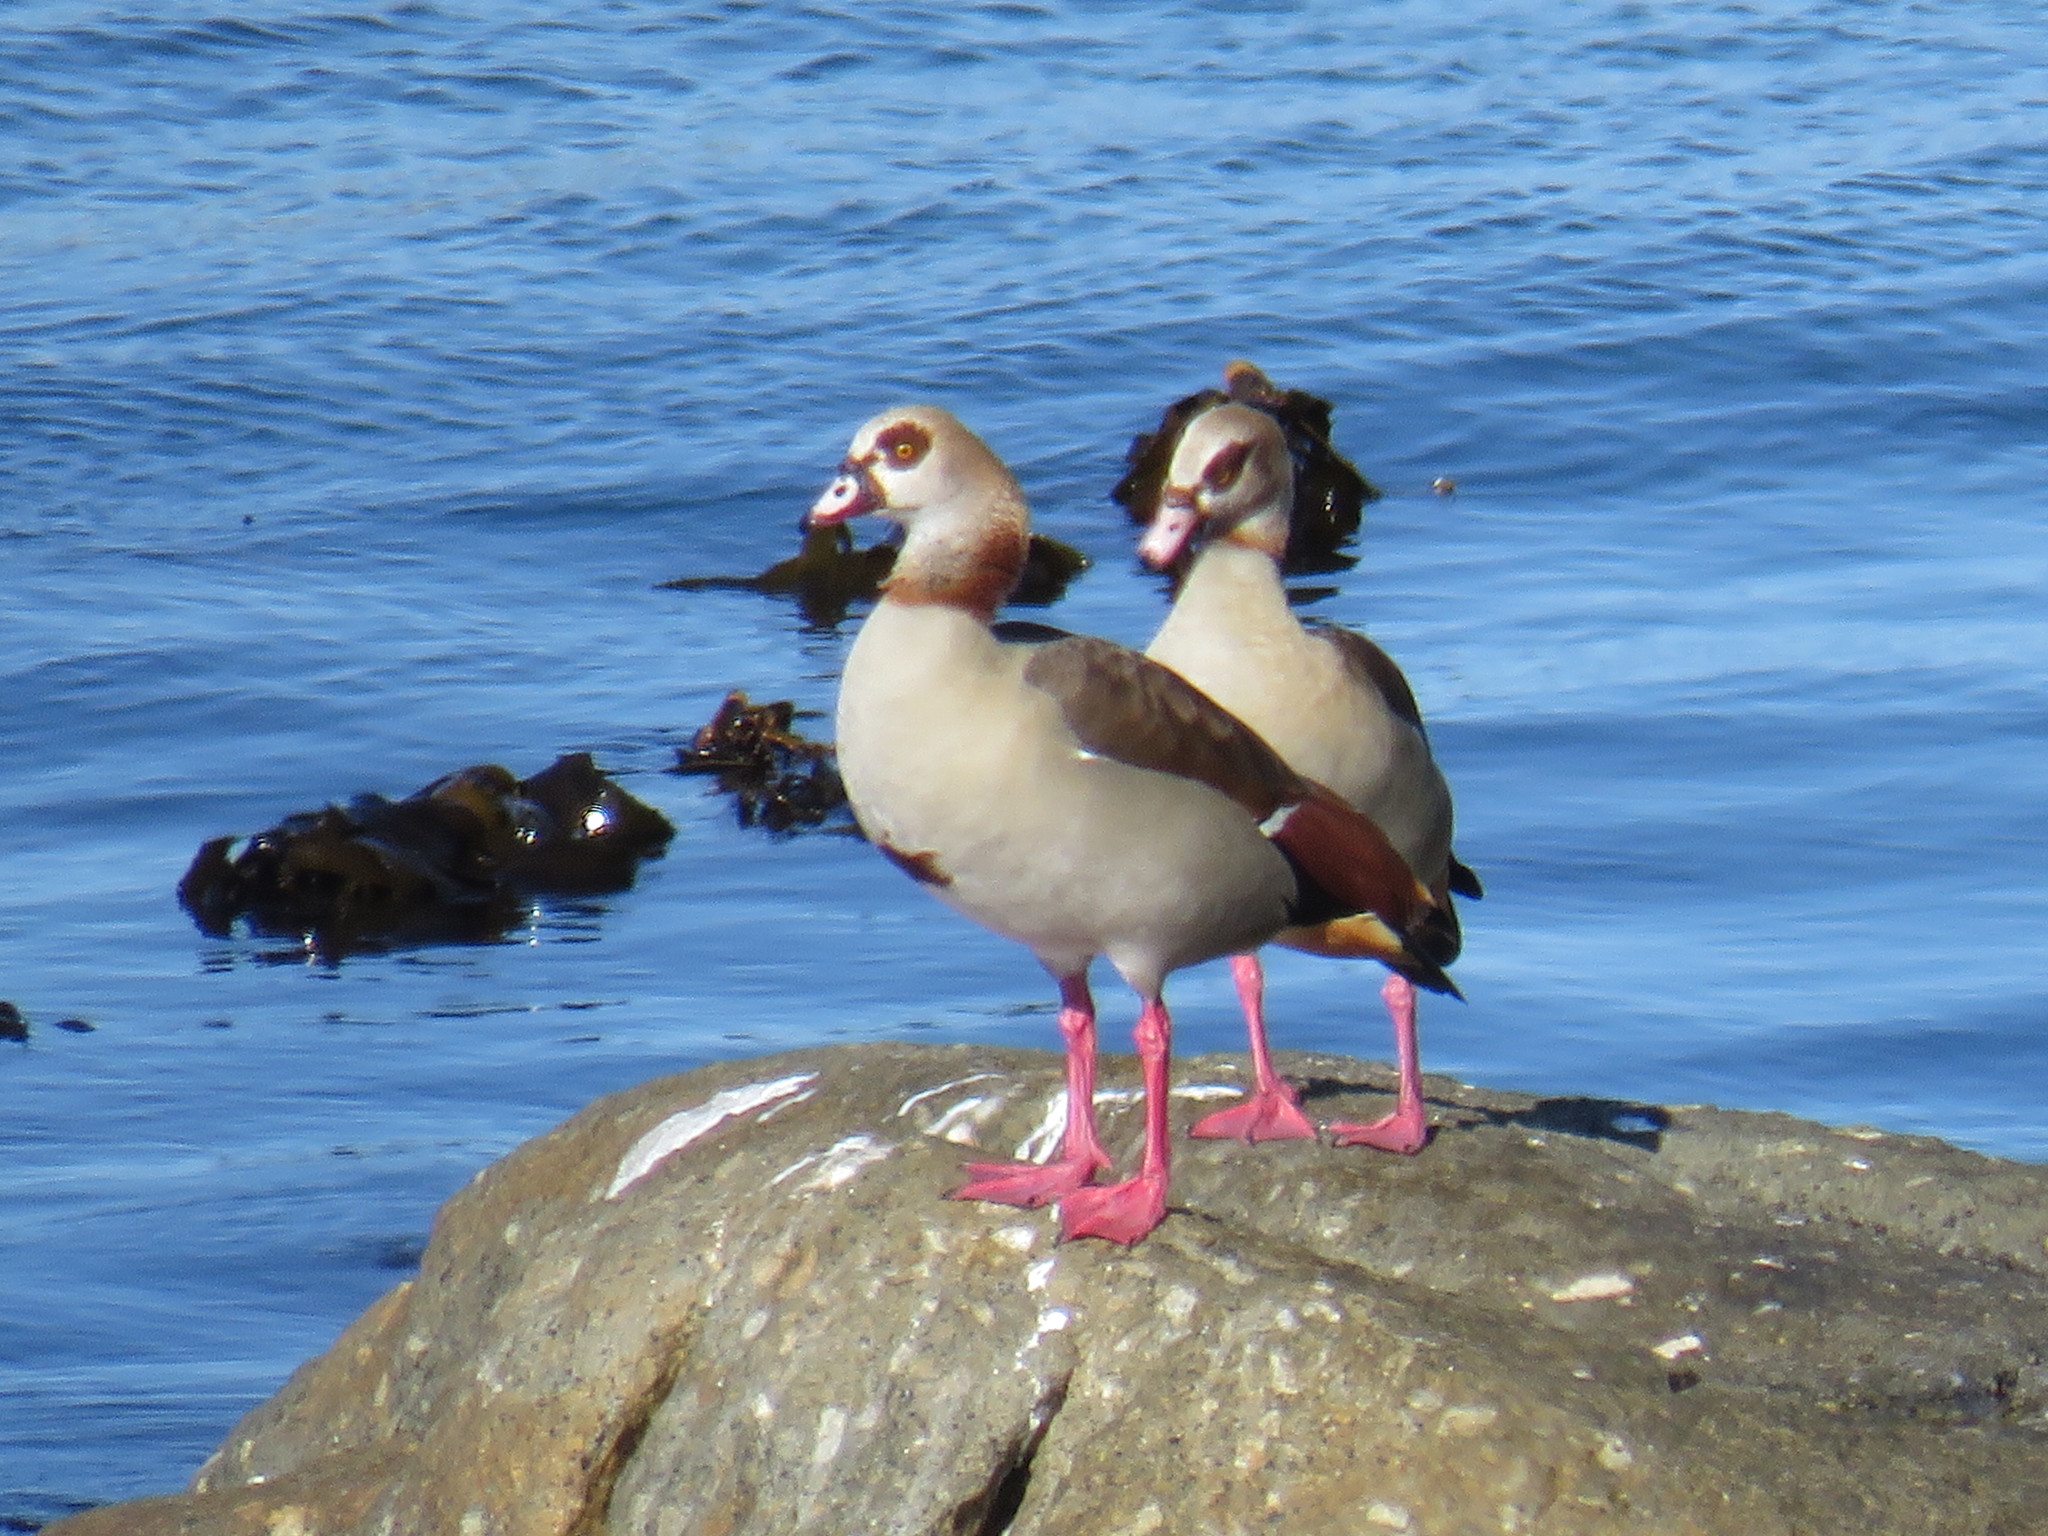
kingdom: Animalia
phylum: Chordata
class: Aves
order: Anseriformes
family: Anatidae
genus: Alopochen
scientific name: Alopochen aegyptiaca
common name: Egyptian goose
